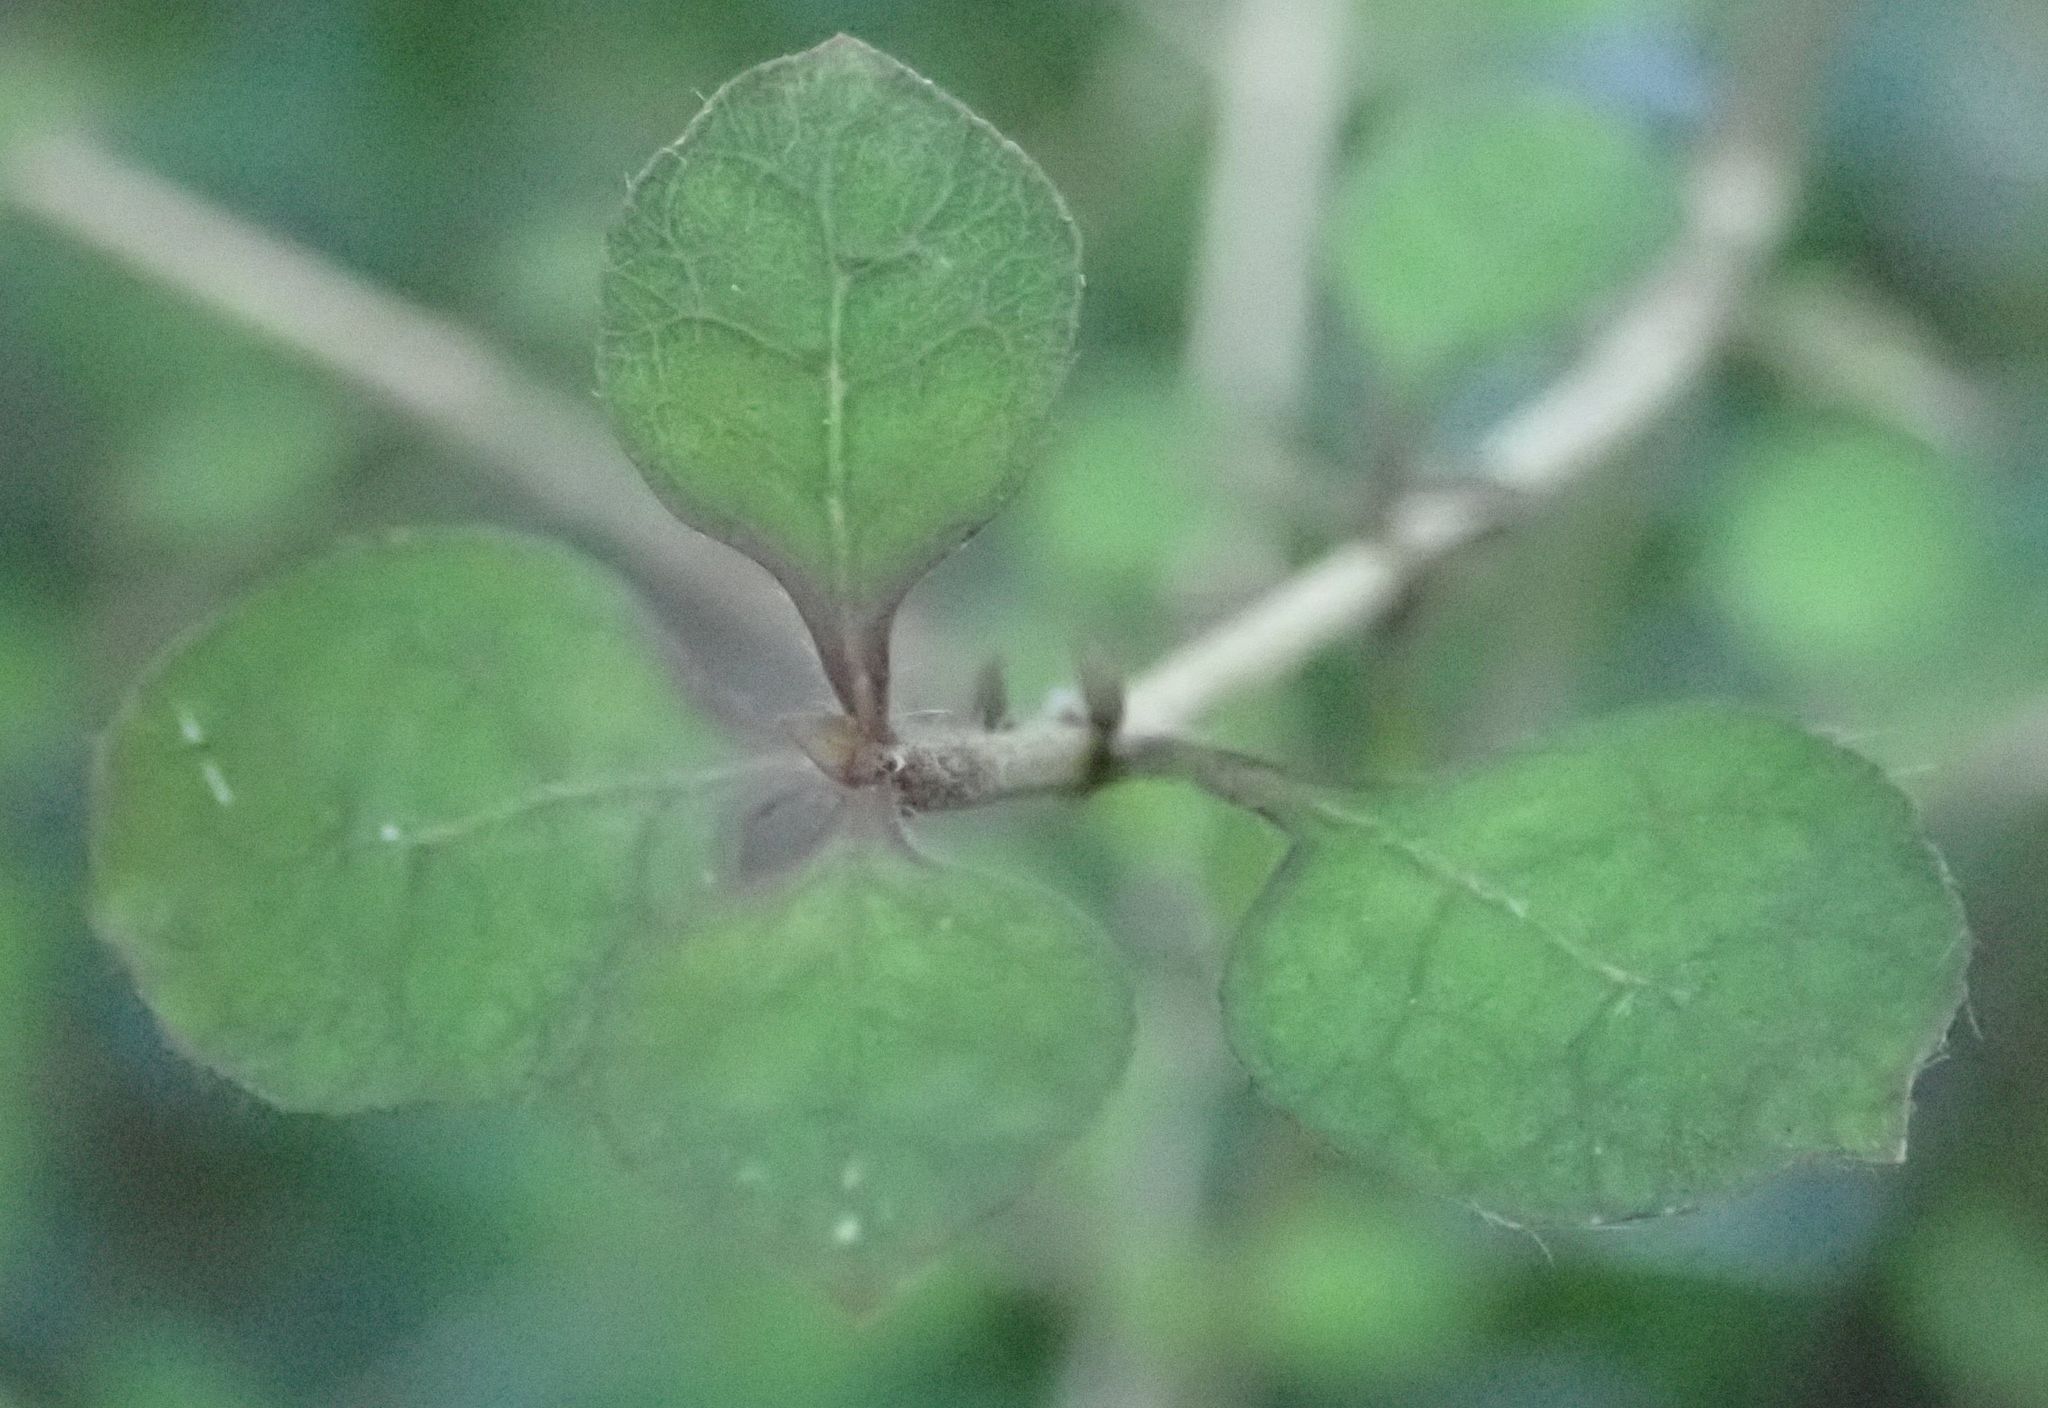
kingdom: Plantae
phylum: Tracheophyta
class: Magnoliopsida
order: Gentianales
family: Rubiaceae
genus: Coprosma
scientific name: Coprosma areolata
